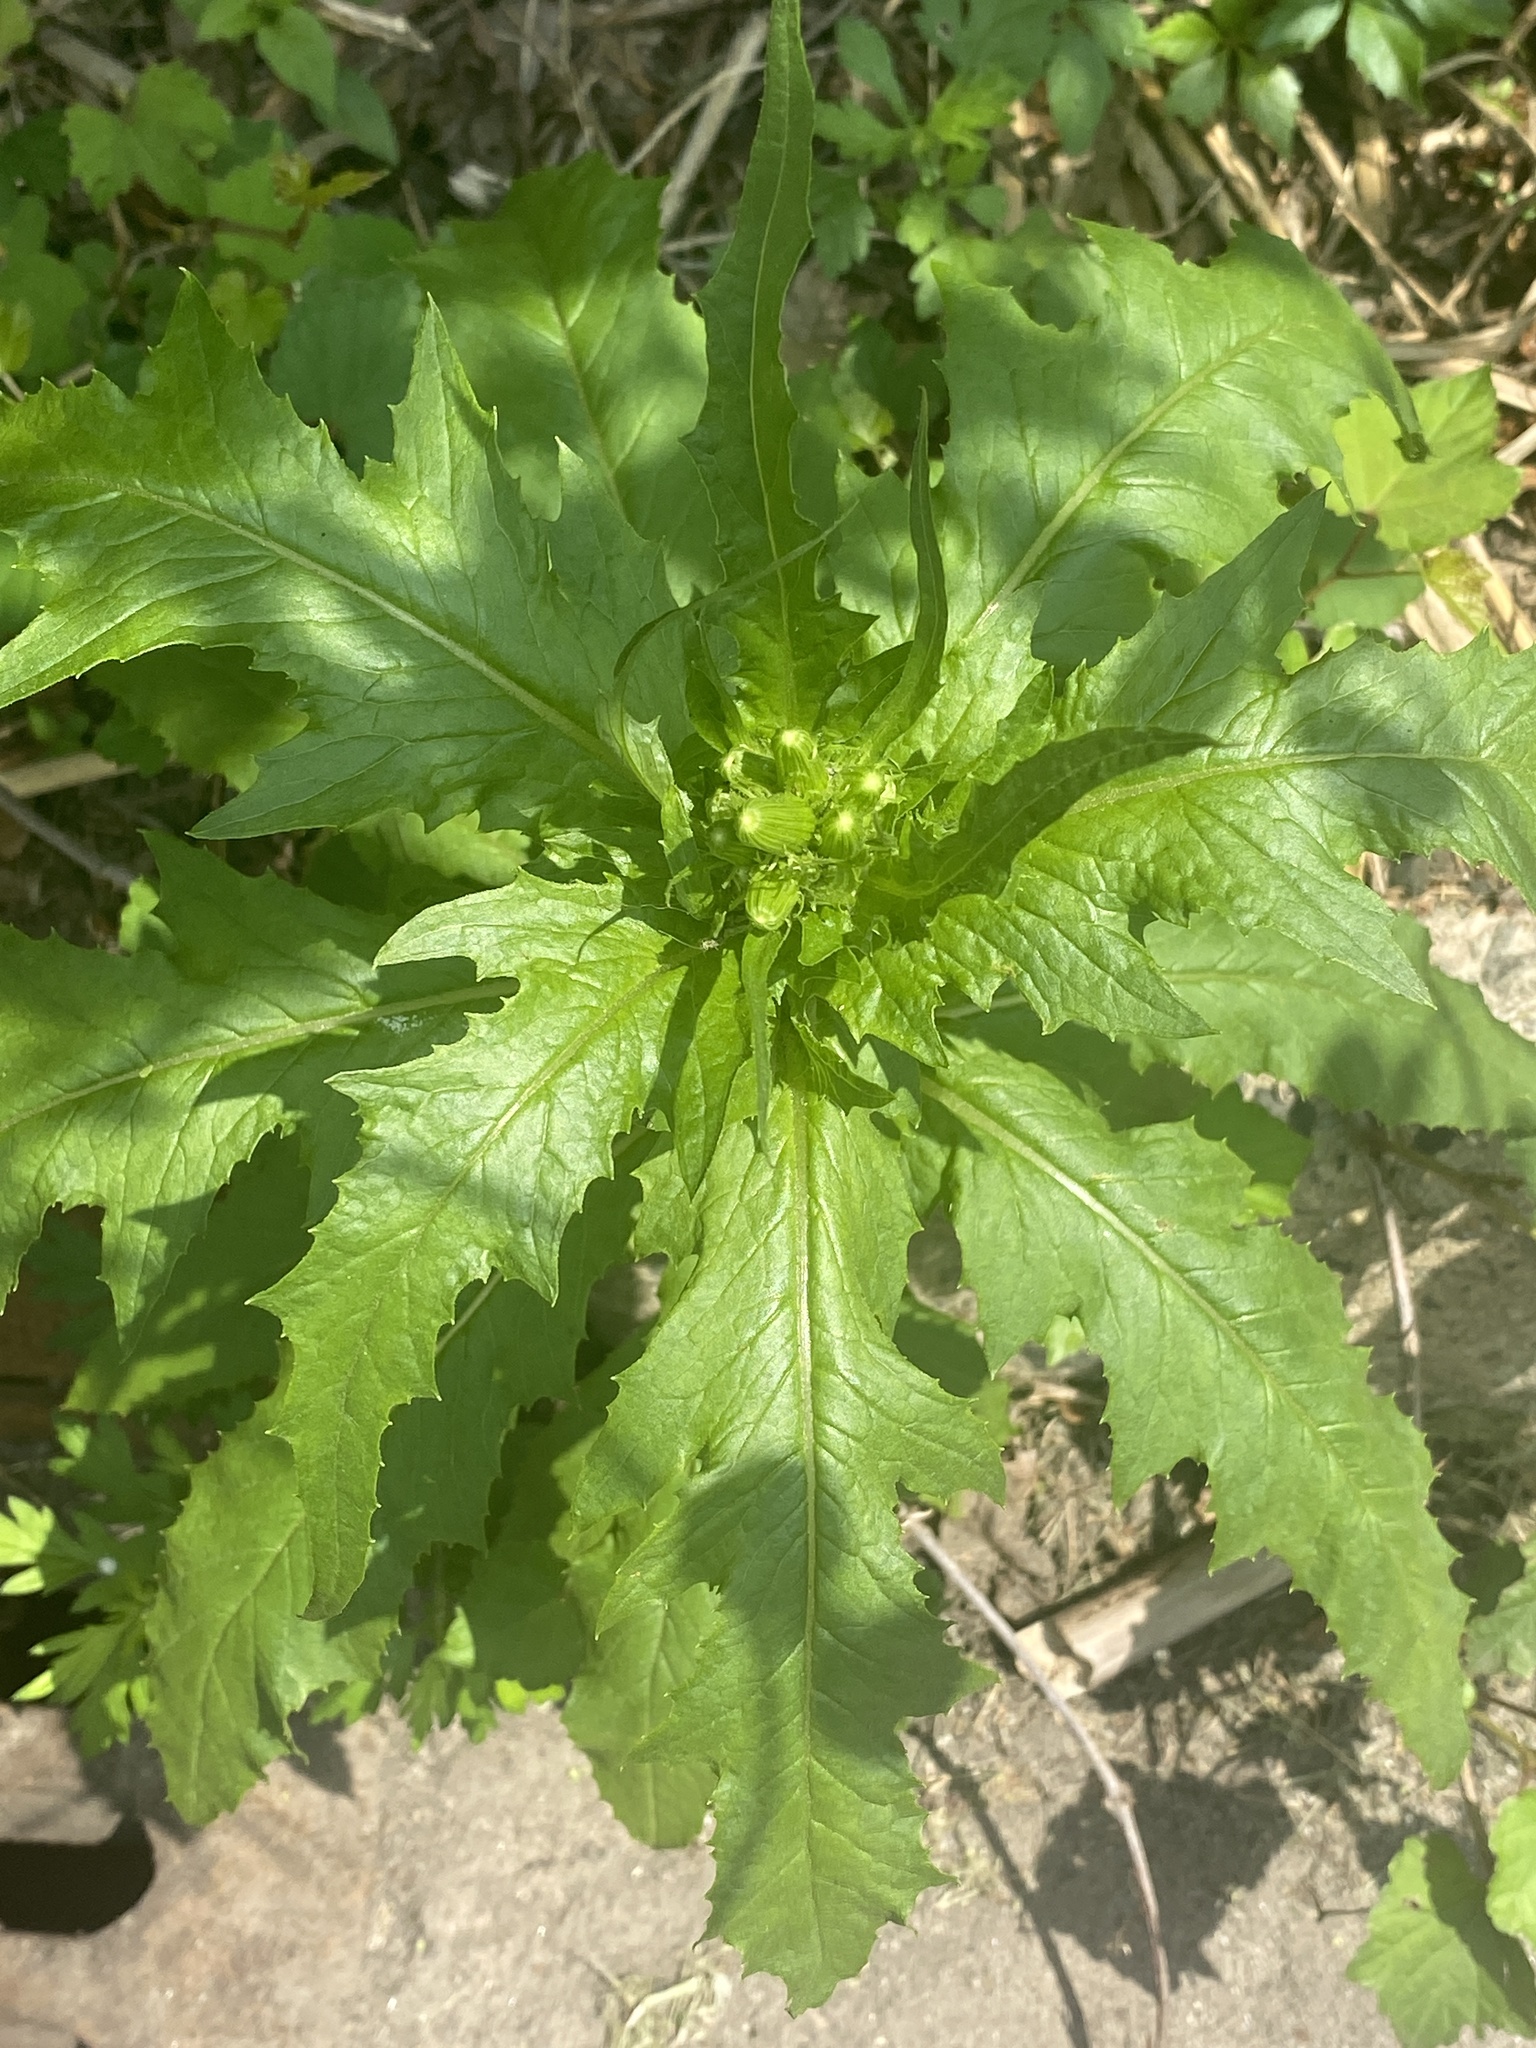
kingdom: Plantae
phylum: Tracheophyta
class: Magnoliopsida
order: Asterales
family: Asteraceae
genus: Erechtites
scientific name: Erechtites hieraciifolius
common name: American burnweed
